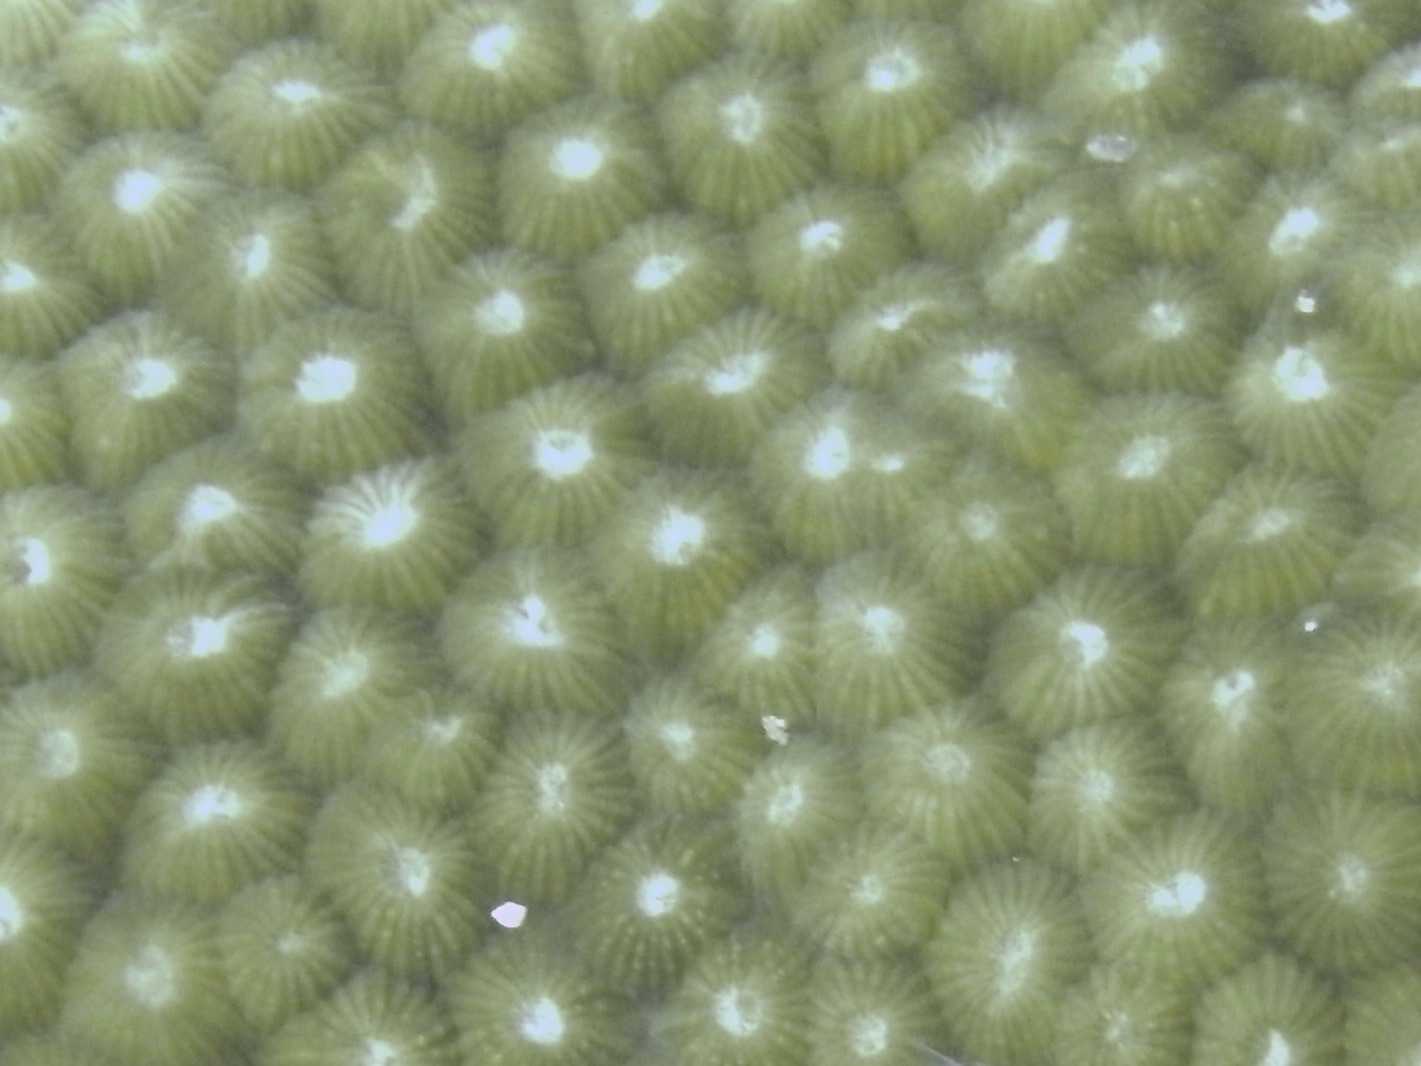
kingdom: Animalia
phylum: Cnidaria
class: Anthozoa
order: Scleractinia
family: Diploastraeidae
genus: Diploastrea
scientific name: Diploastrea heliopora
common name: Double-star coral
